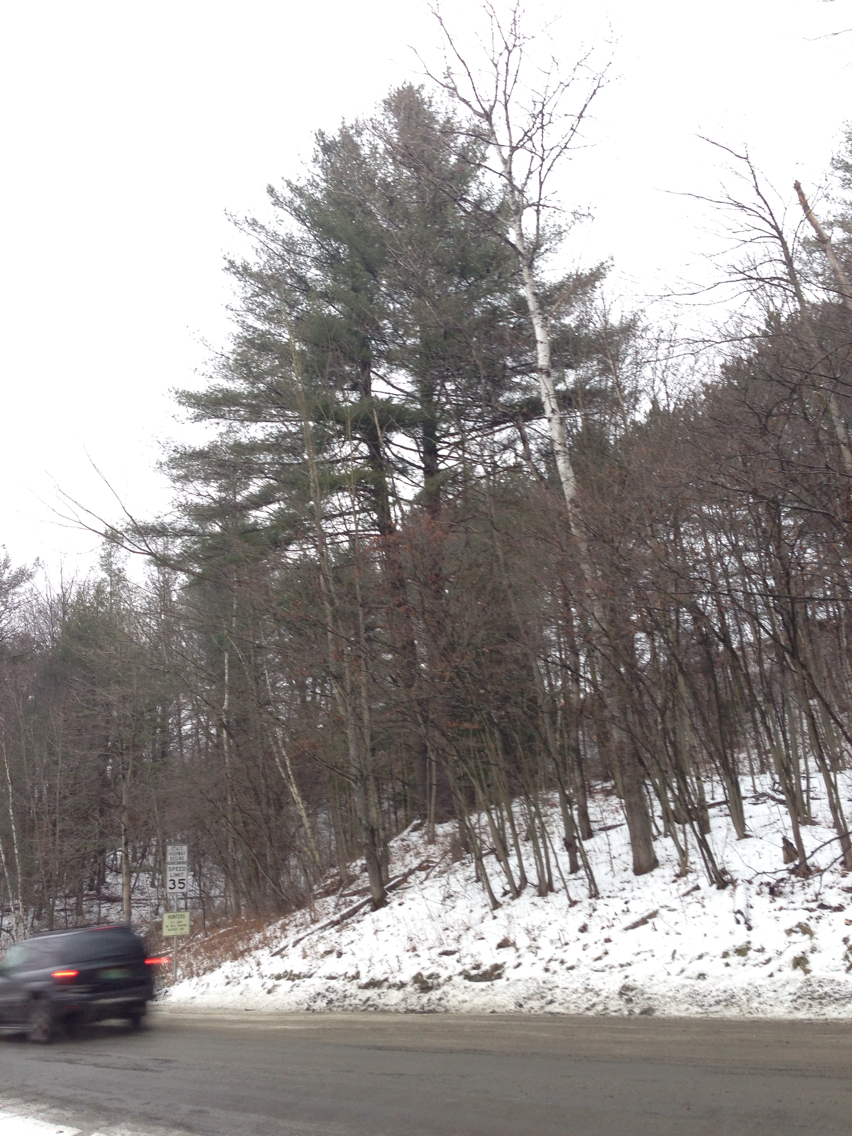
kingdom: Plantae
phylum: Tracheophyta
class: Pinopsida
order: Pinales
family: Pinaceae
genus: Pinus
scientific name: Pinus strobus
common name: Weymouth pine
